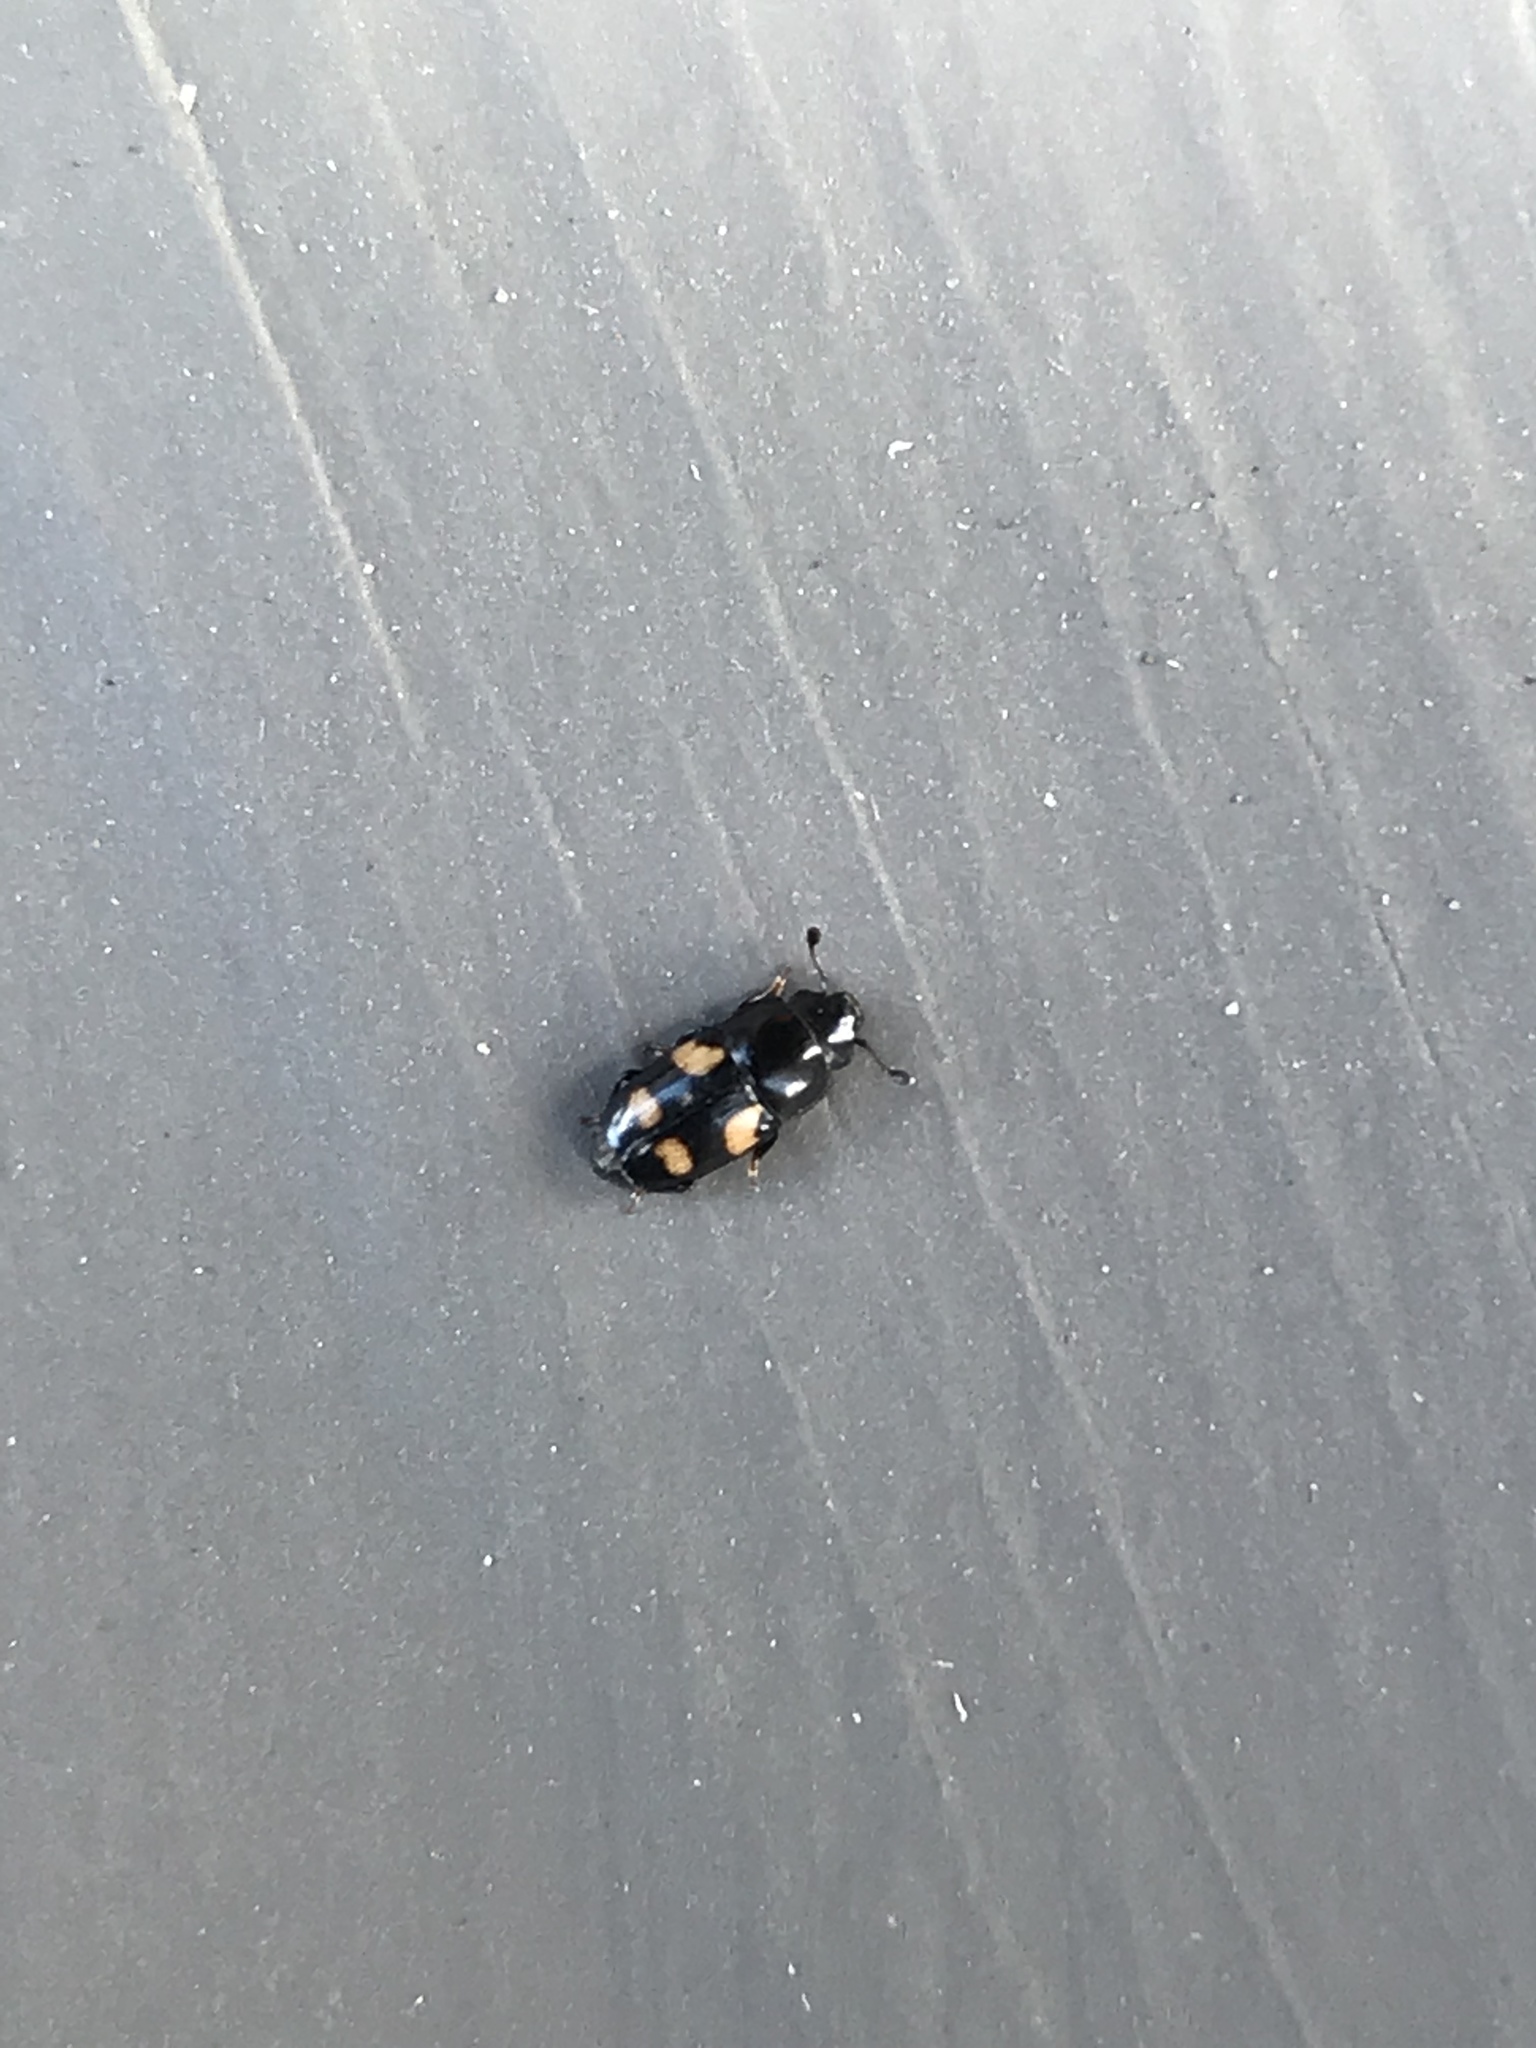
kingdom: Animalia
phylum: Arthropoda
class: Insecta
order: Coleoptera
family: Nitidulidae
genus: Glischrochilus
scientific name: Glischrochilus quadrisignatus
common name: Picnic beetle
